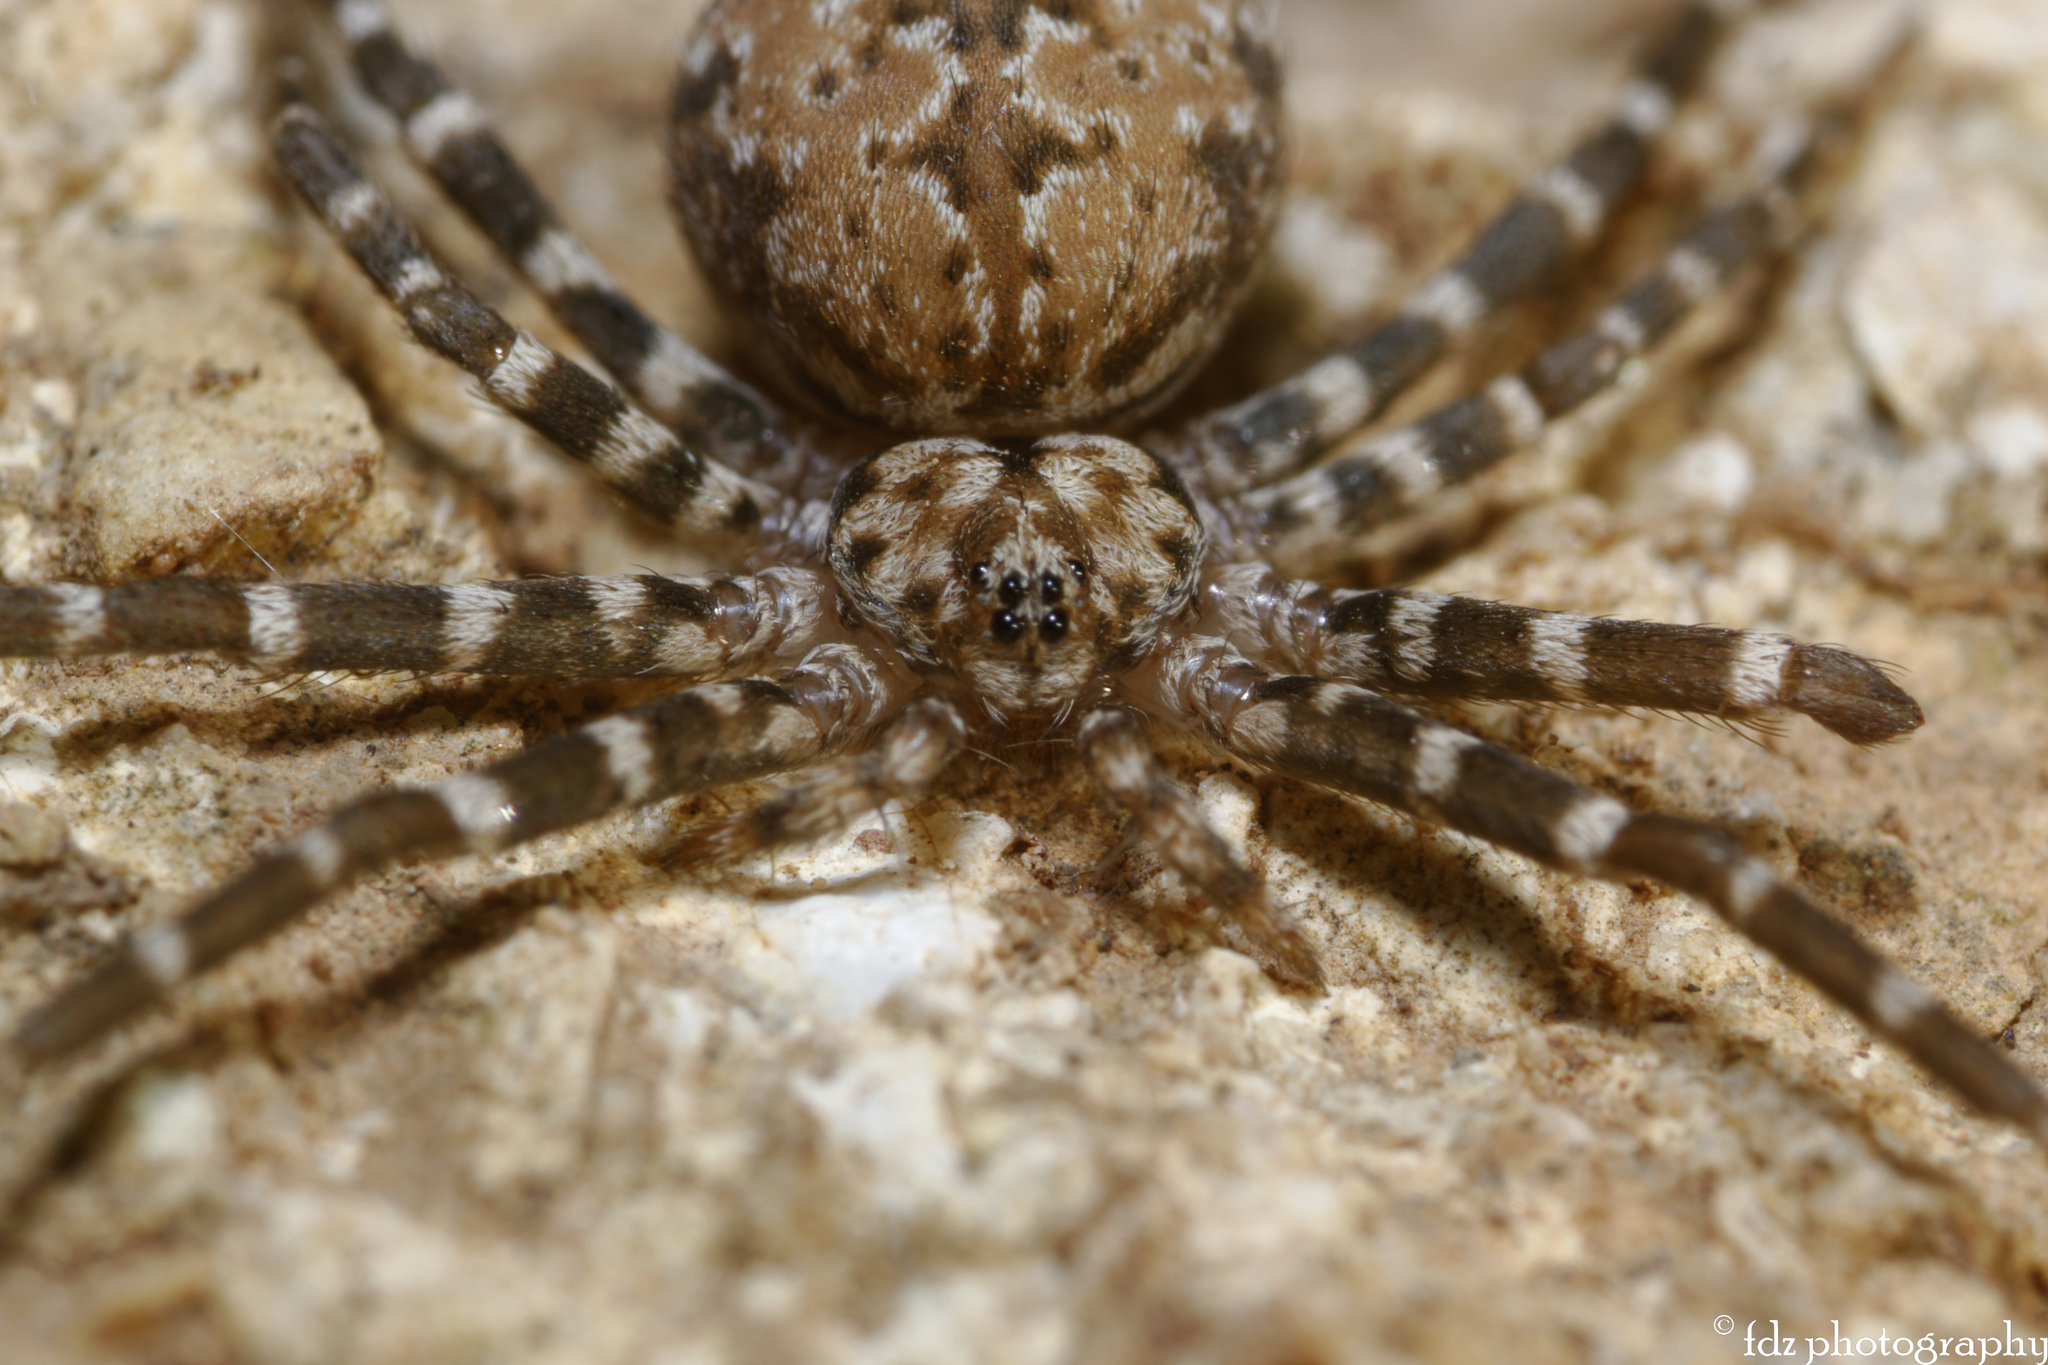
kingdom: Animalia
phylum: Arthropoda
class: Arachnida
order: Araneae
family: Hersiliidae
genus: Hersiliola
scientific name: Hersiliola macullulata
